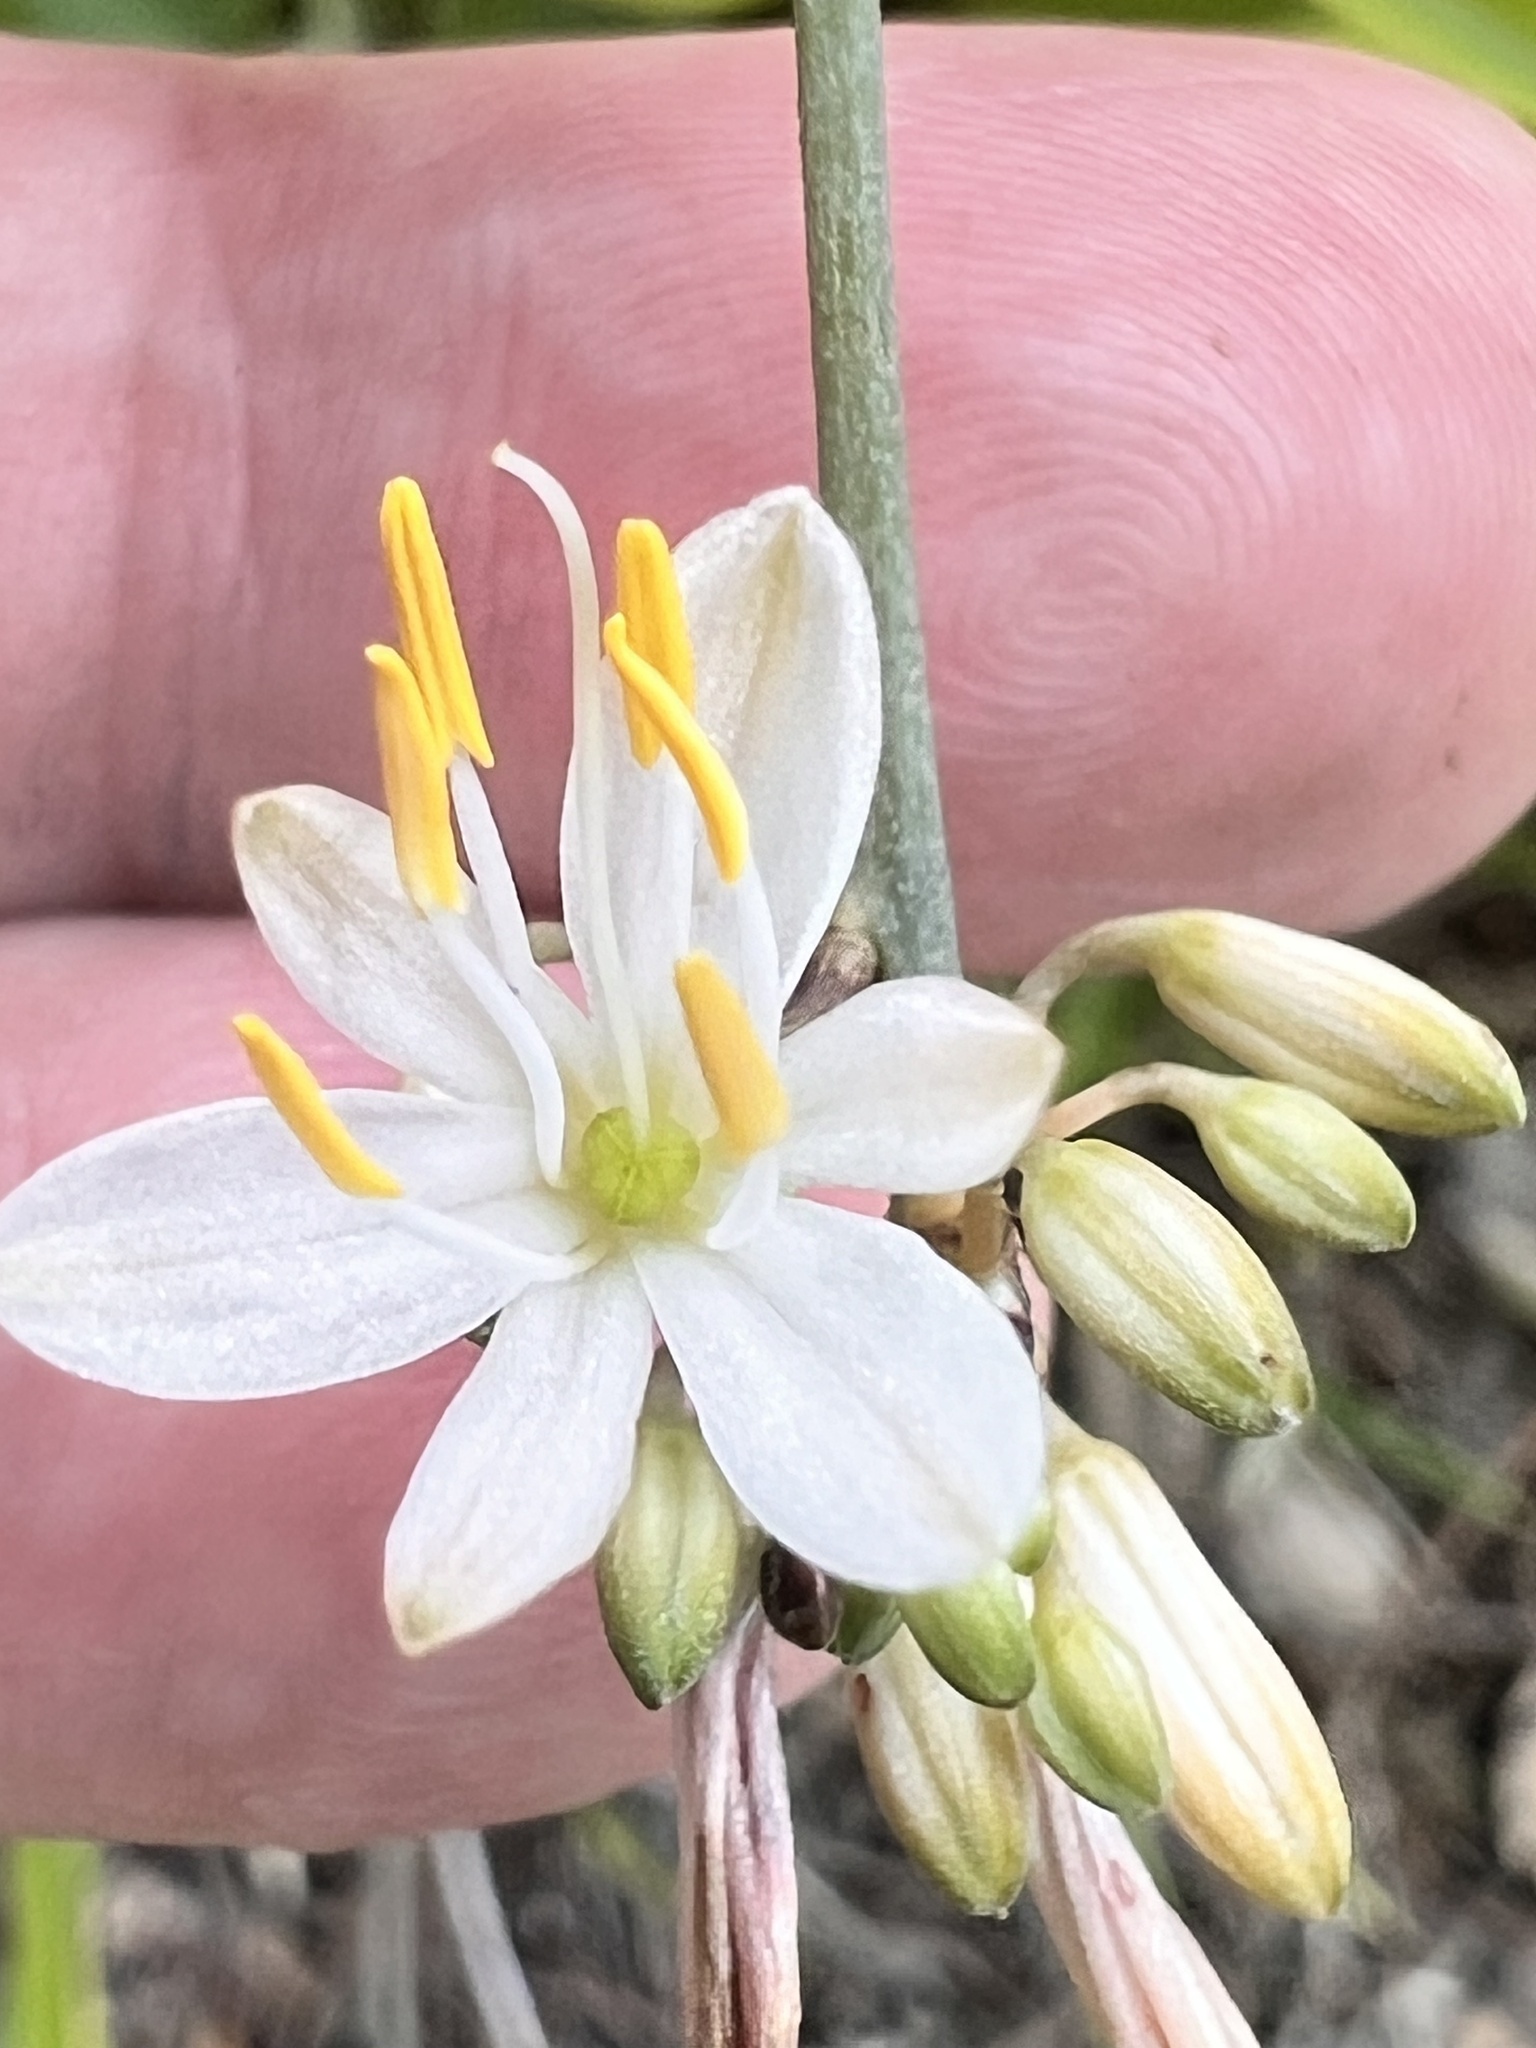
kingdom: Plantae
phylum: Tracheophyta
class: Liliopsida
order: Asparagales
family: Asparagaceae
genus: Chlorophytum
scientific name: Chlorophytum comosum
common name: Spider plant
